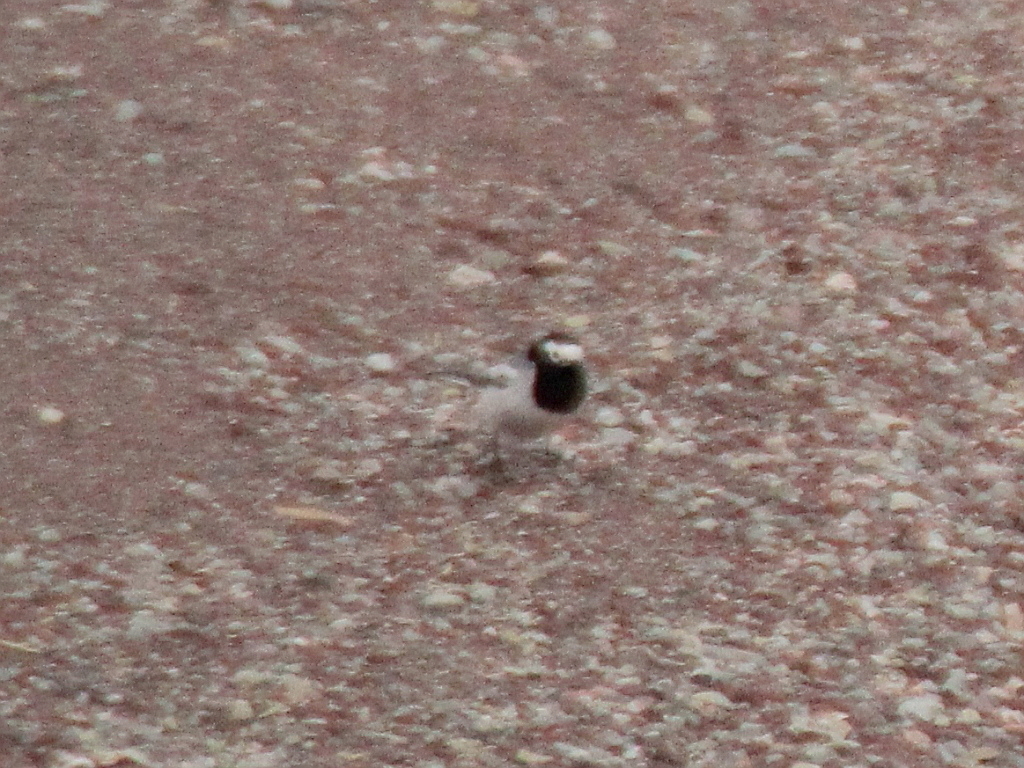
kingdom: Animalia
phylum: Chordata
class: Aves
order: Passeriformes
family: Motacillidae
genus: Motacilla
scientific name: Motacilla alba
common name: White wagtail
